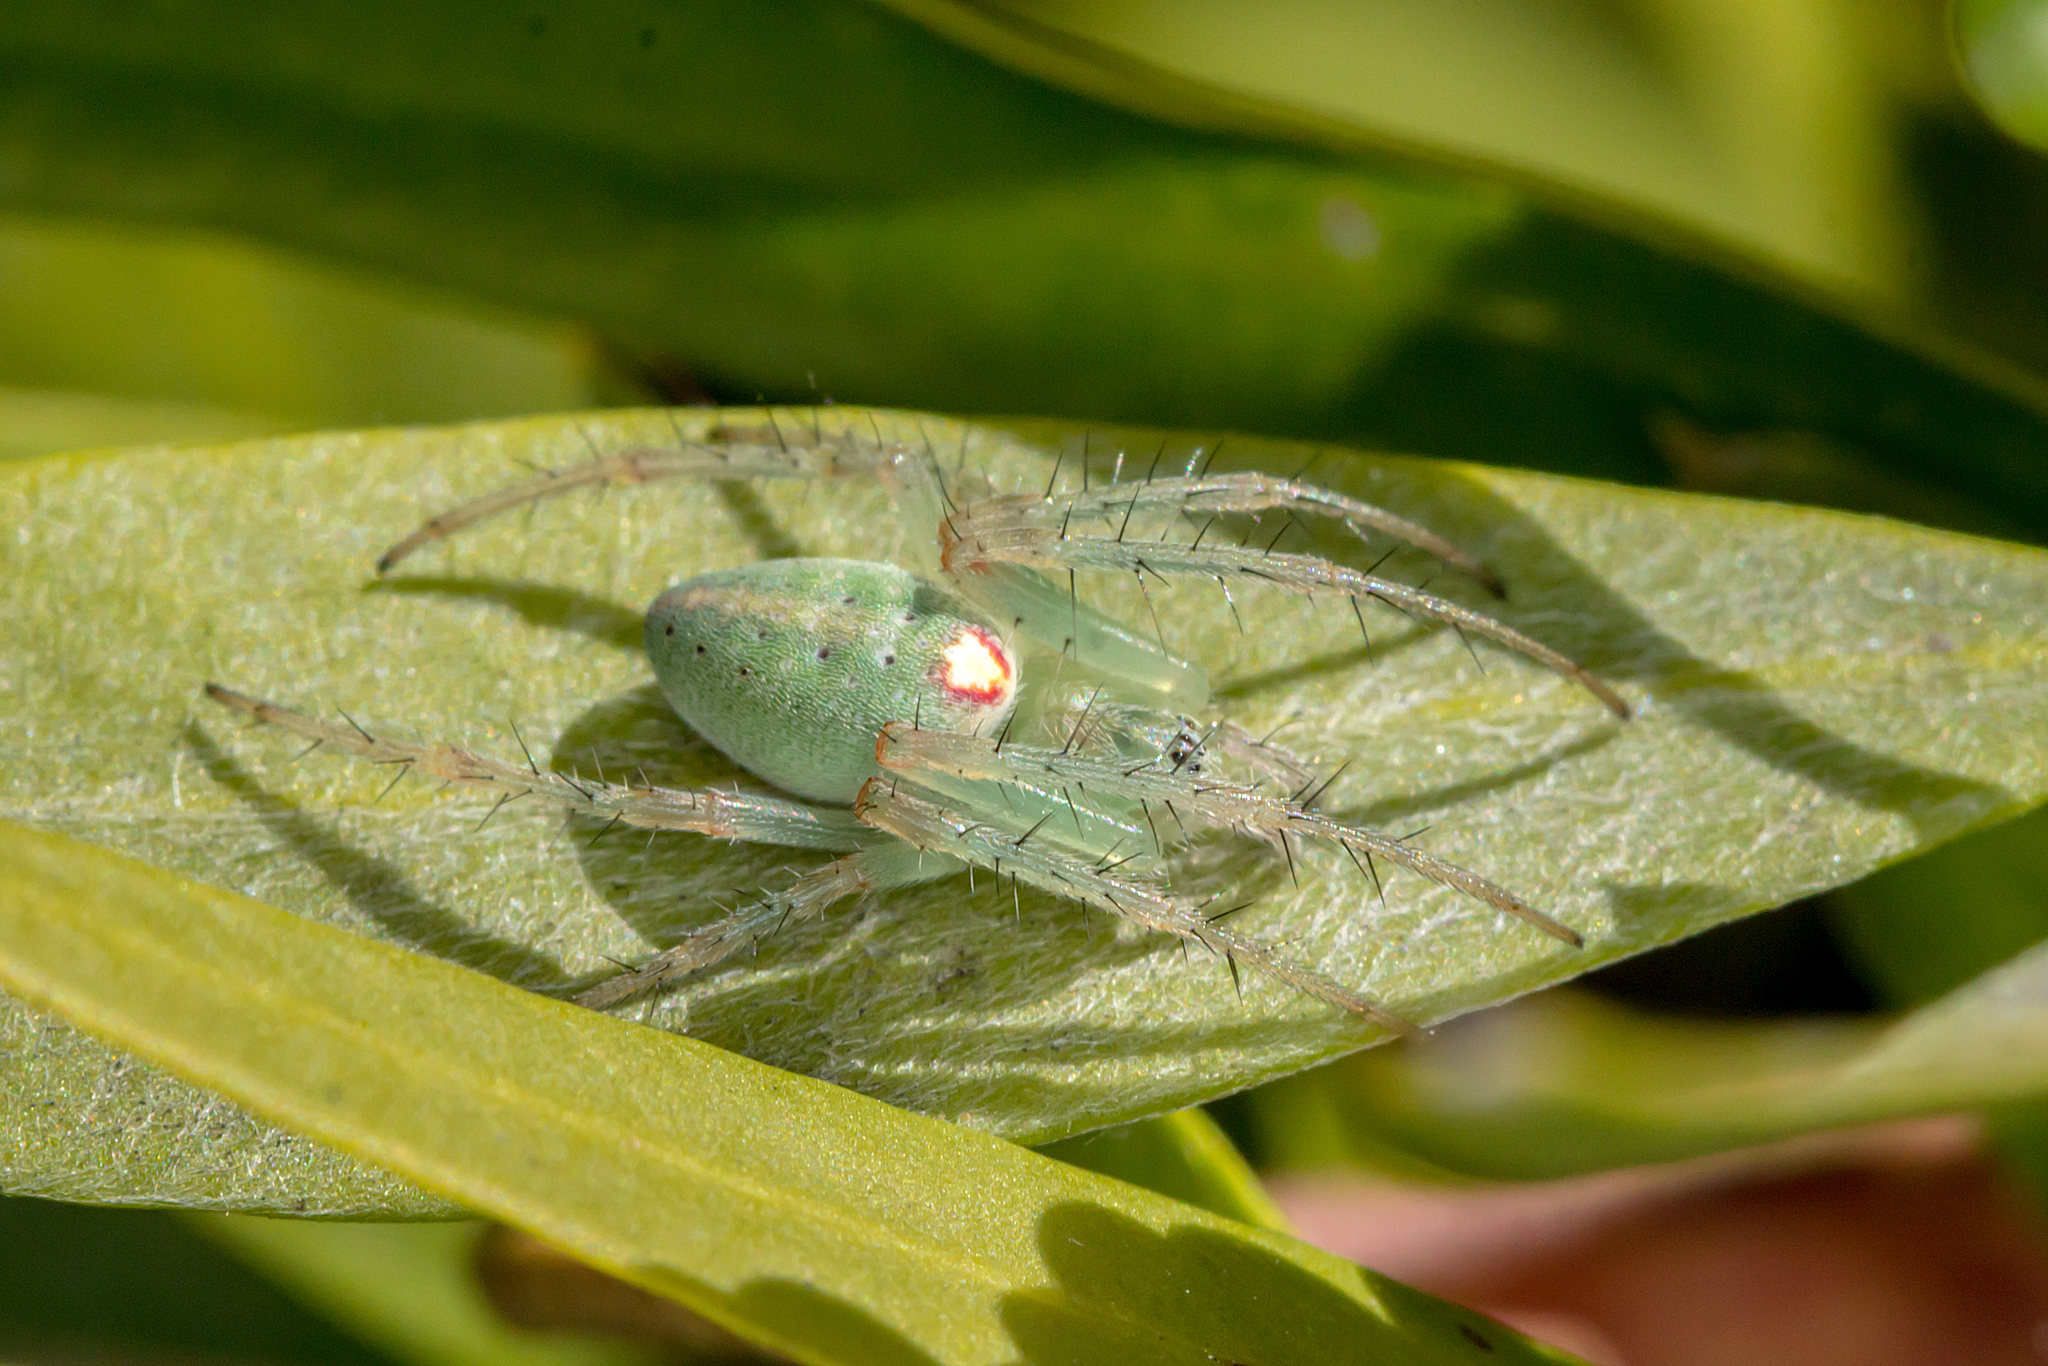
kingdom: Animalia
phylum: Arthropoda
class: Arachnida
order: Araneae
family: Araneidae
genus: Araneus
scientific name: Araneus talipedatus
